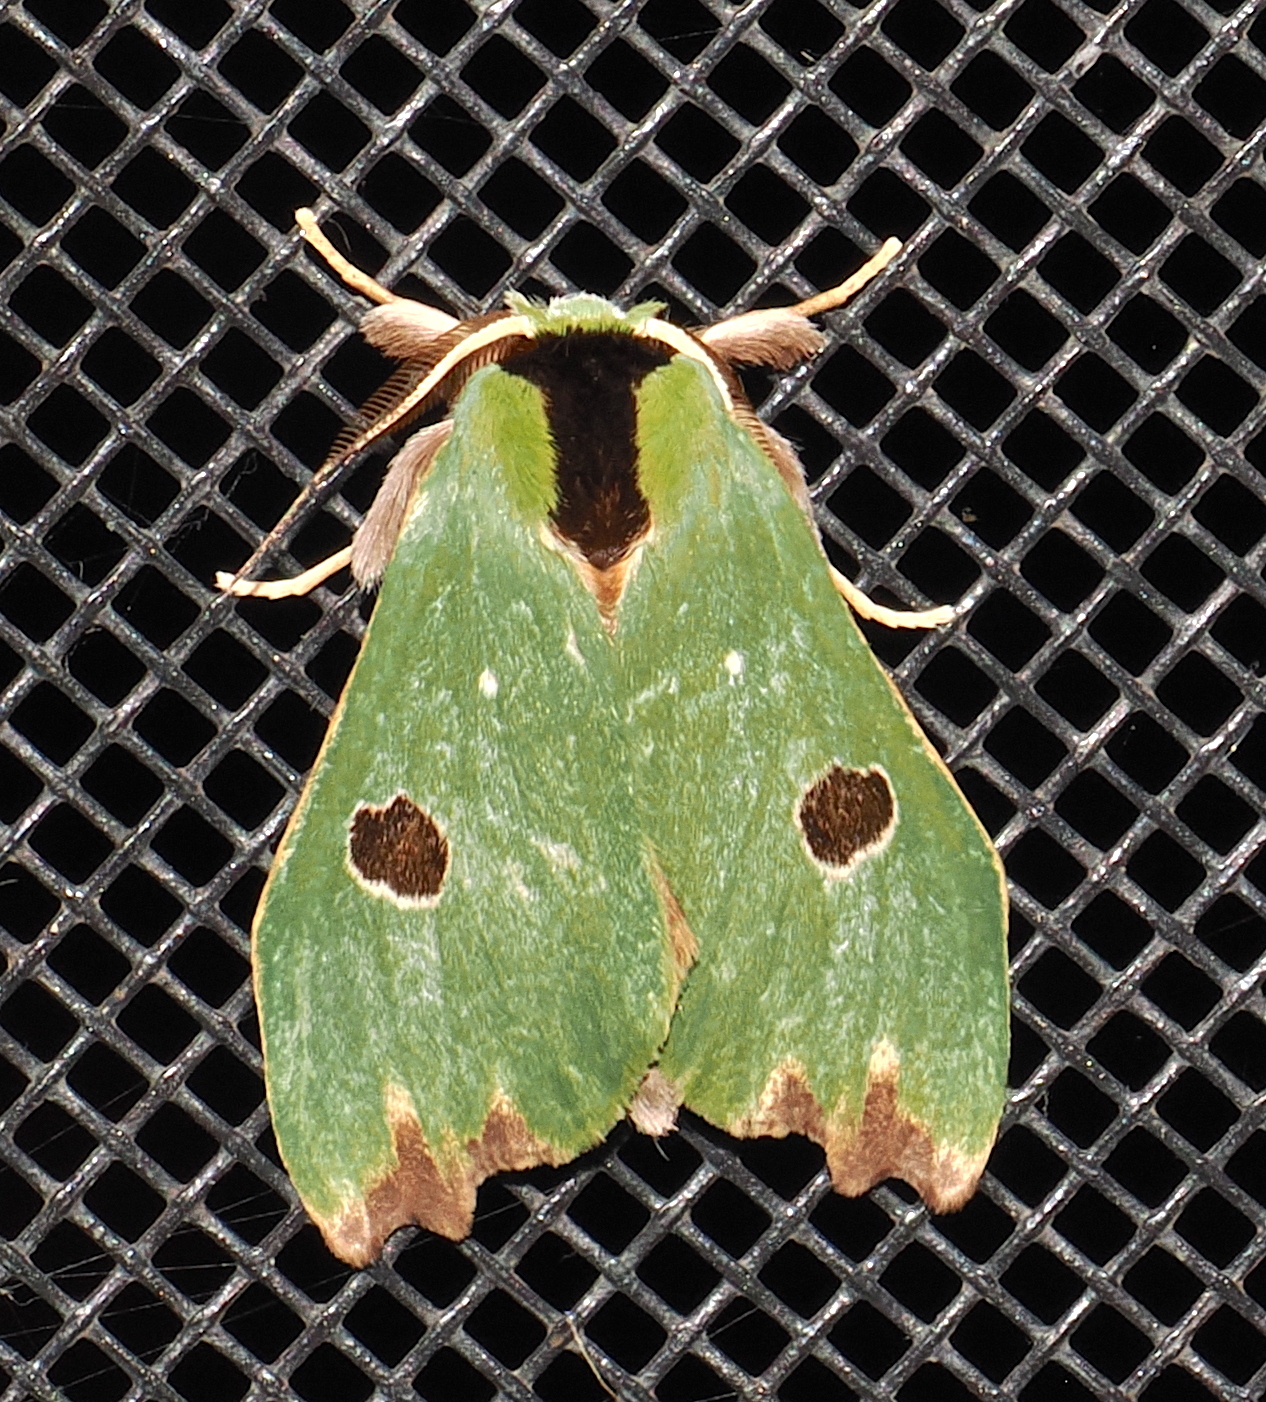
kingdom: Animalia
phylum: Arthropoda
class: Insecta
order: Lepidoptera
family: Notodontidae
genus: Rosema
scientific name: Rosema maximepunctum
